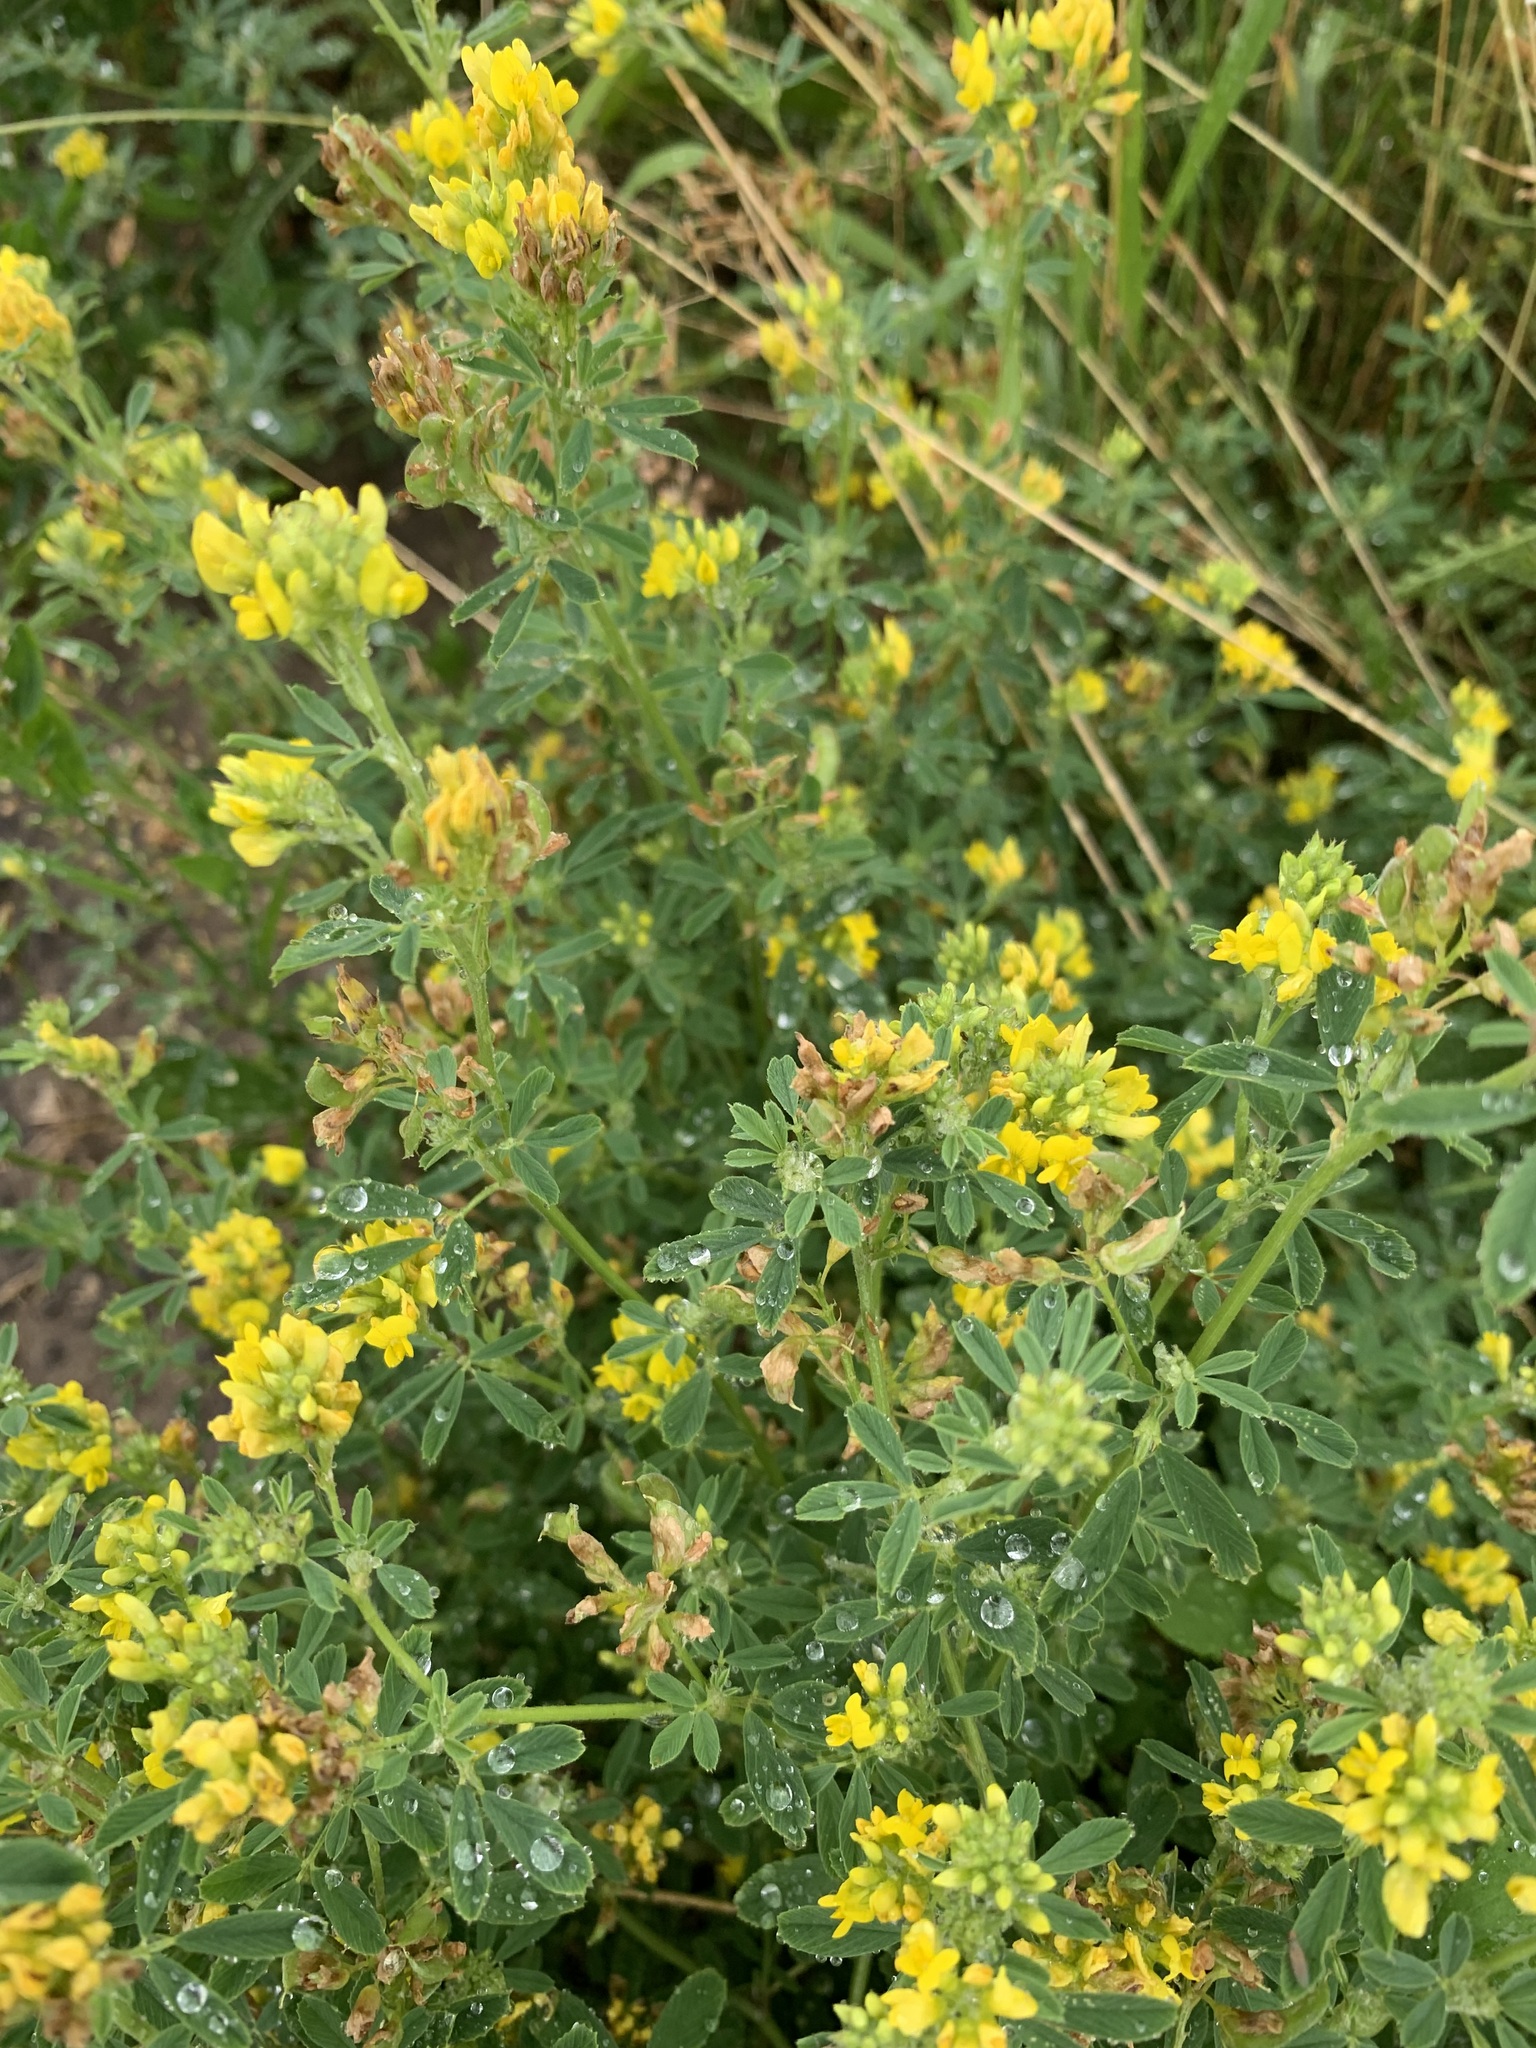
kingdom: Plantae
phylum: Tracheophyta
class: Magnoliopsida
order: Fabales
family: Fabaceae
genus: Medicago
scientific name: Medicago falcata
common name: Sickle medick
